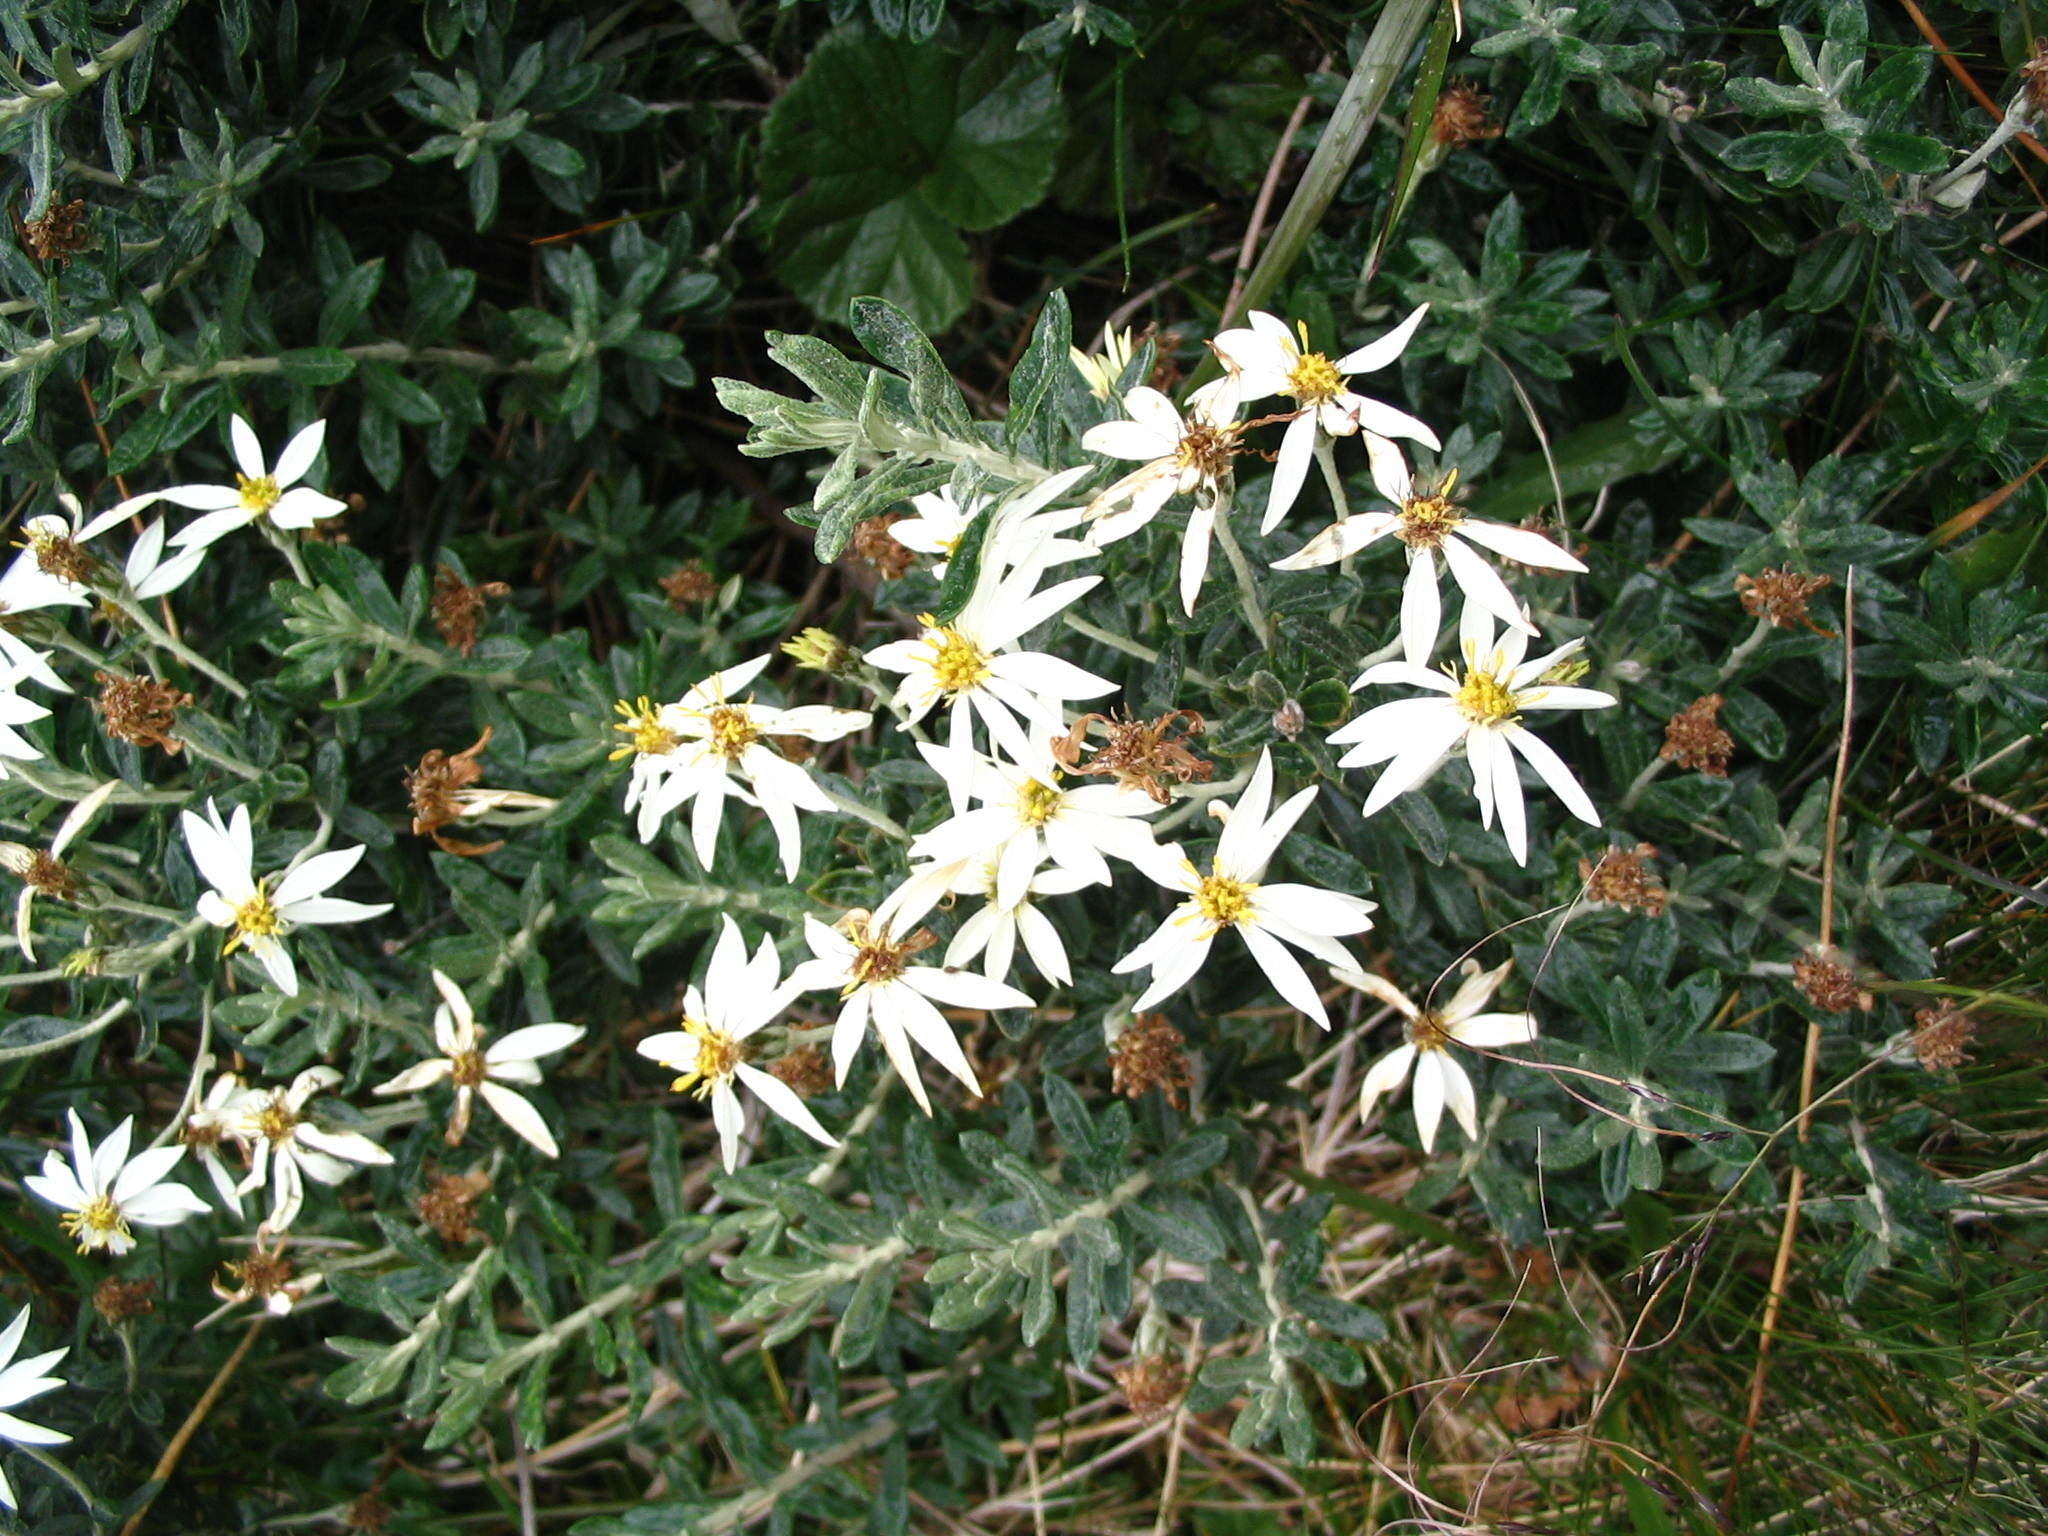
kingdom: Plantae
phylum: Tracheophyta
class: Magnoliopsida
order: Asterales
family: Asteraceae
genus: Chiliotrichum
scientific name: Chiliotrichum diffusum
